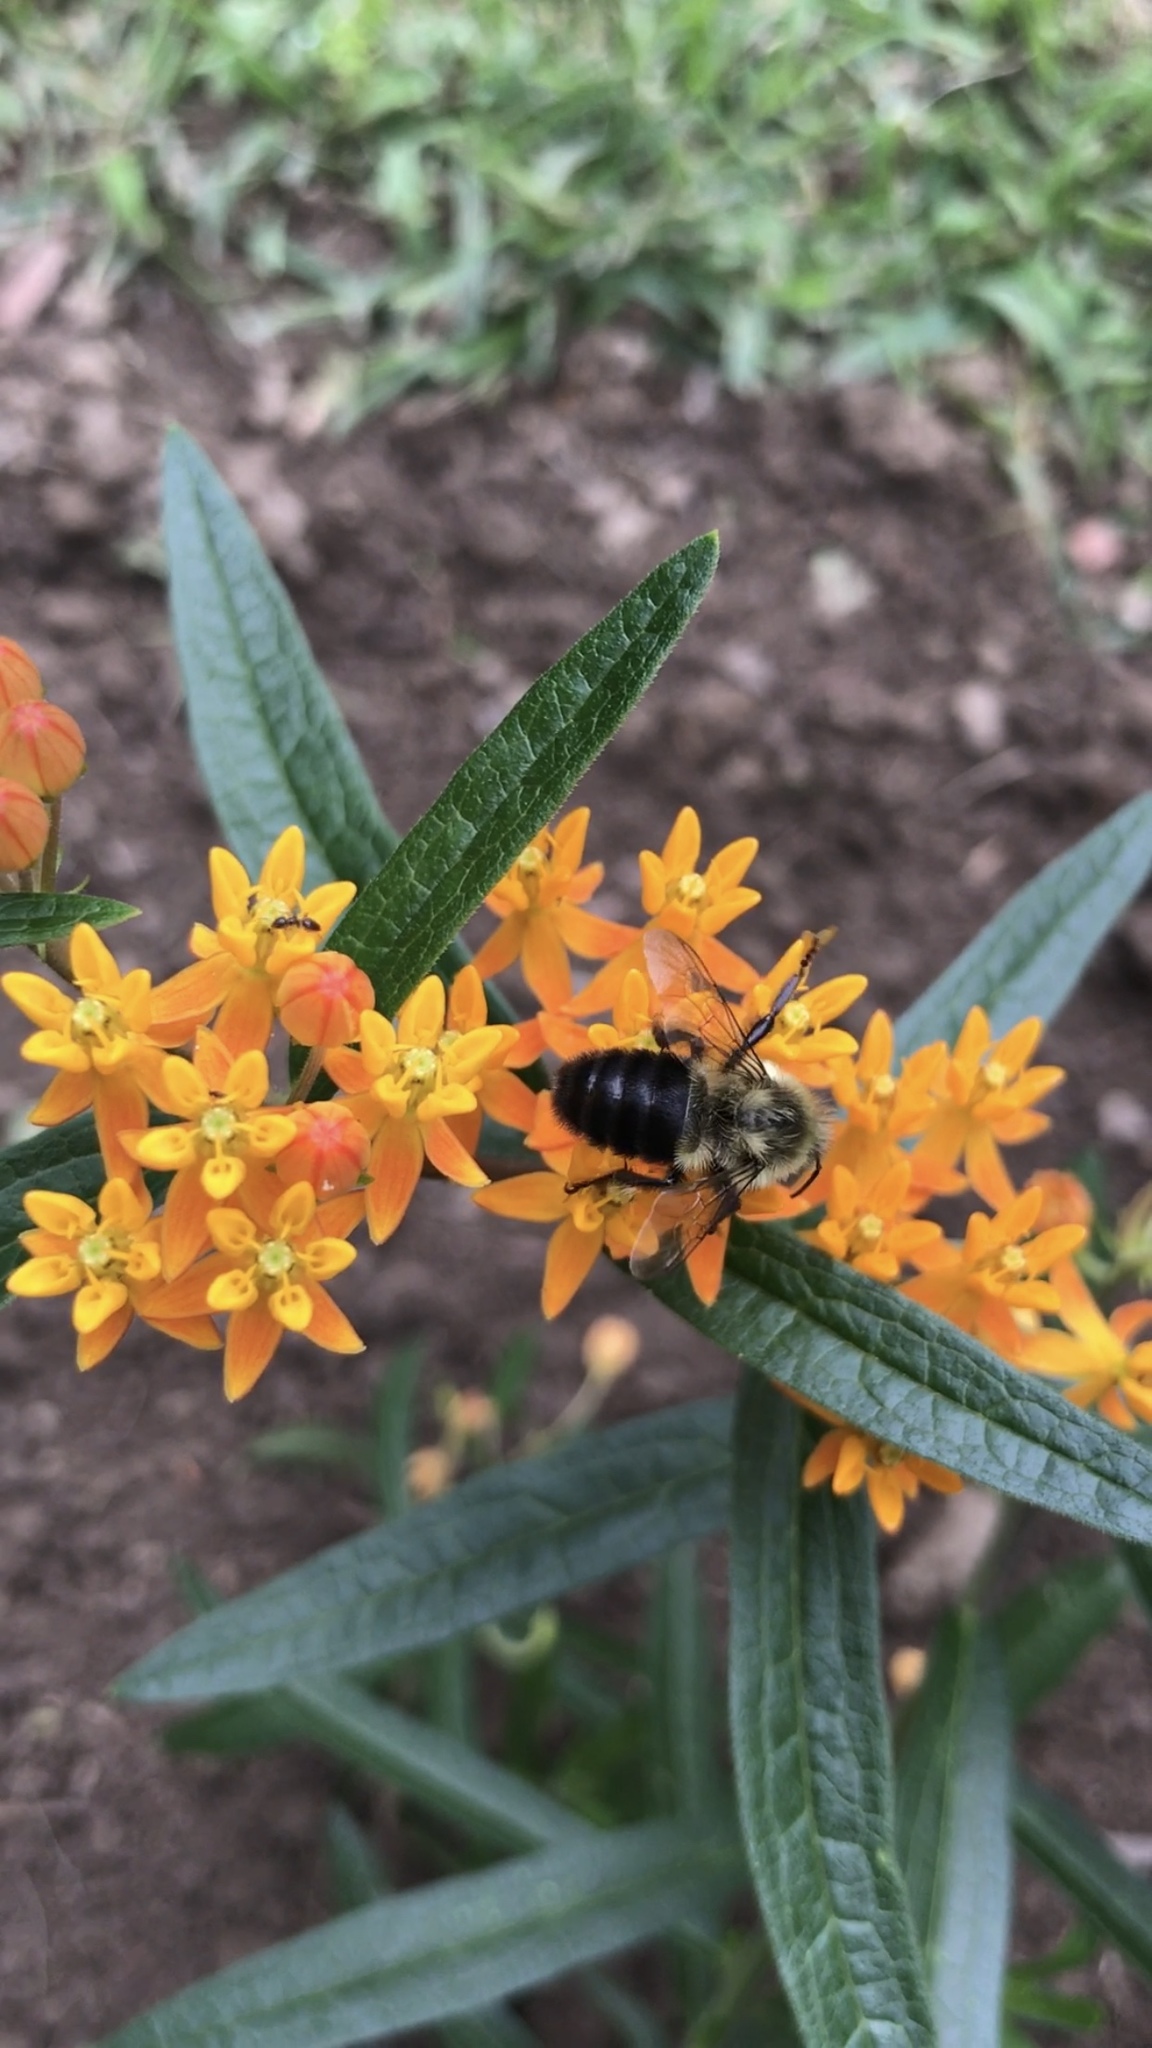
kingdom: Animalia
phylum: Arthropoda
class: Insecta
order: Hymenoptera
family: Apidae
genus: Bombus
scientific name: Bombus impatiens
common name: Common eastern bumble bee
